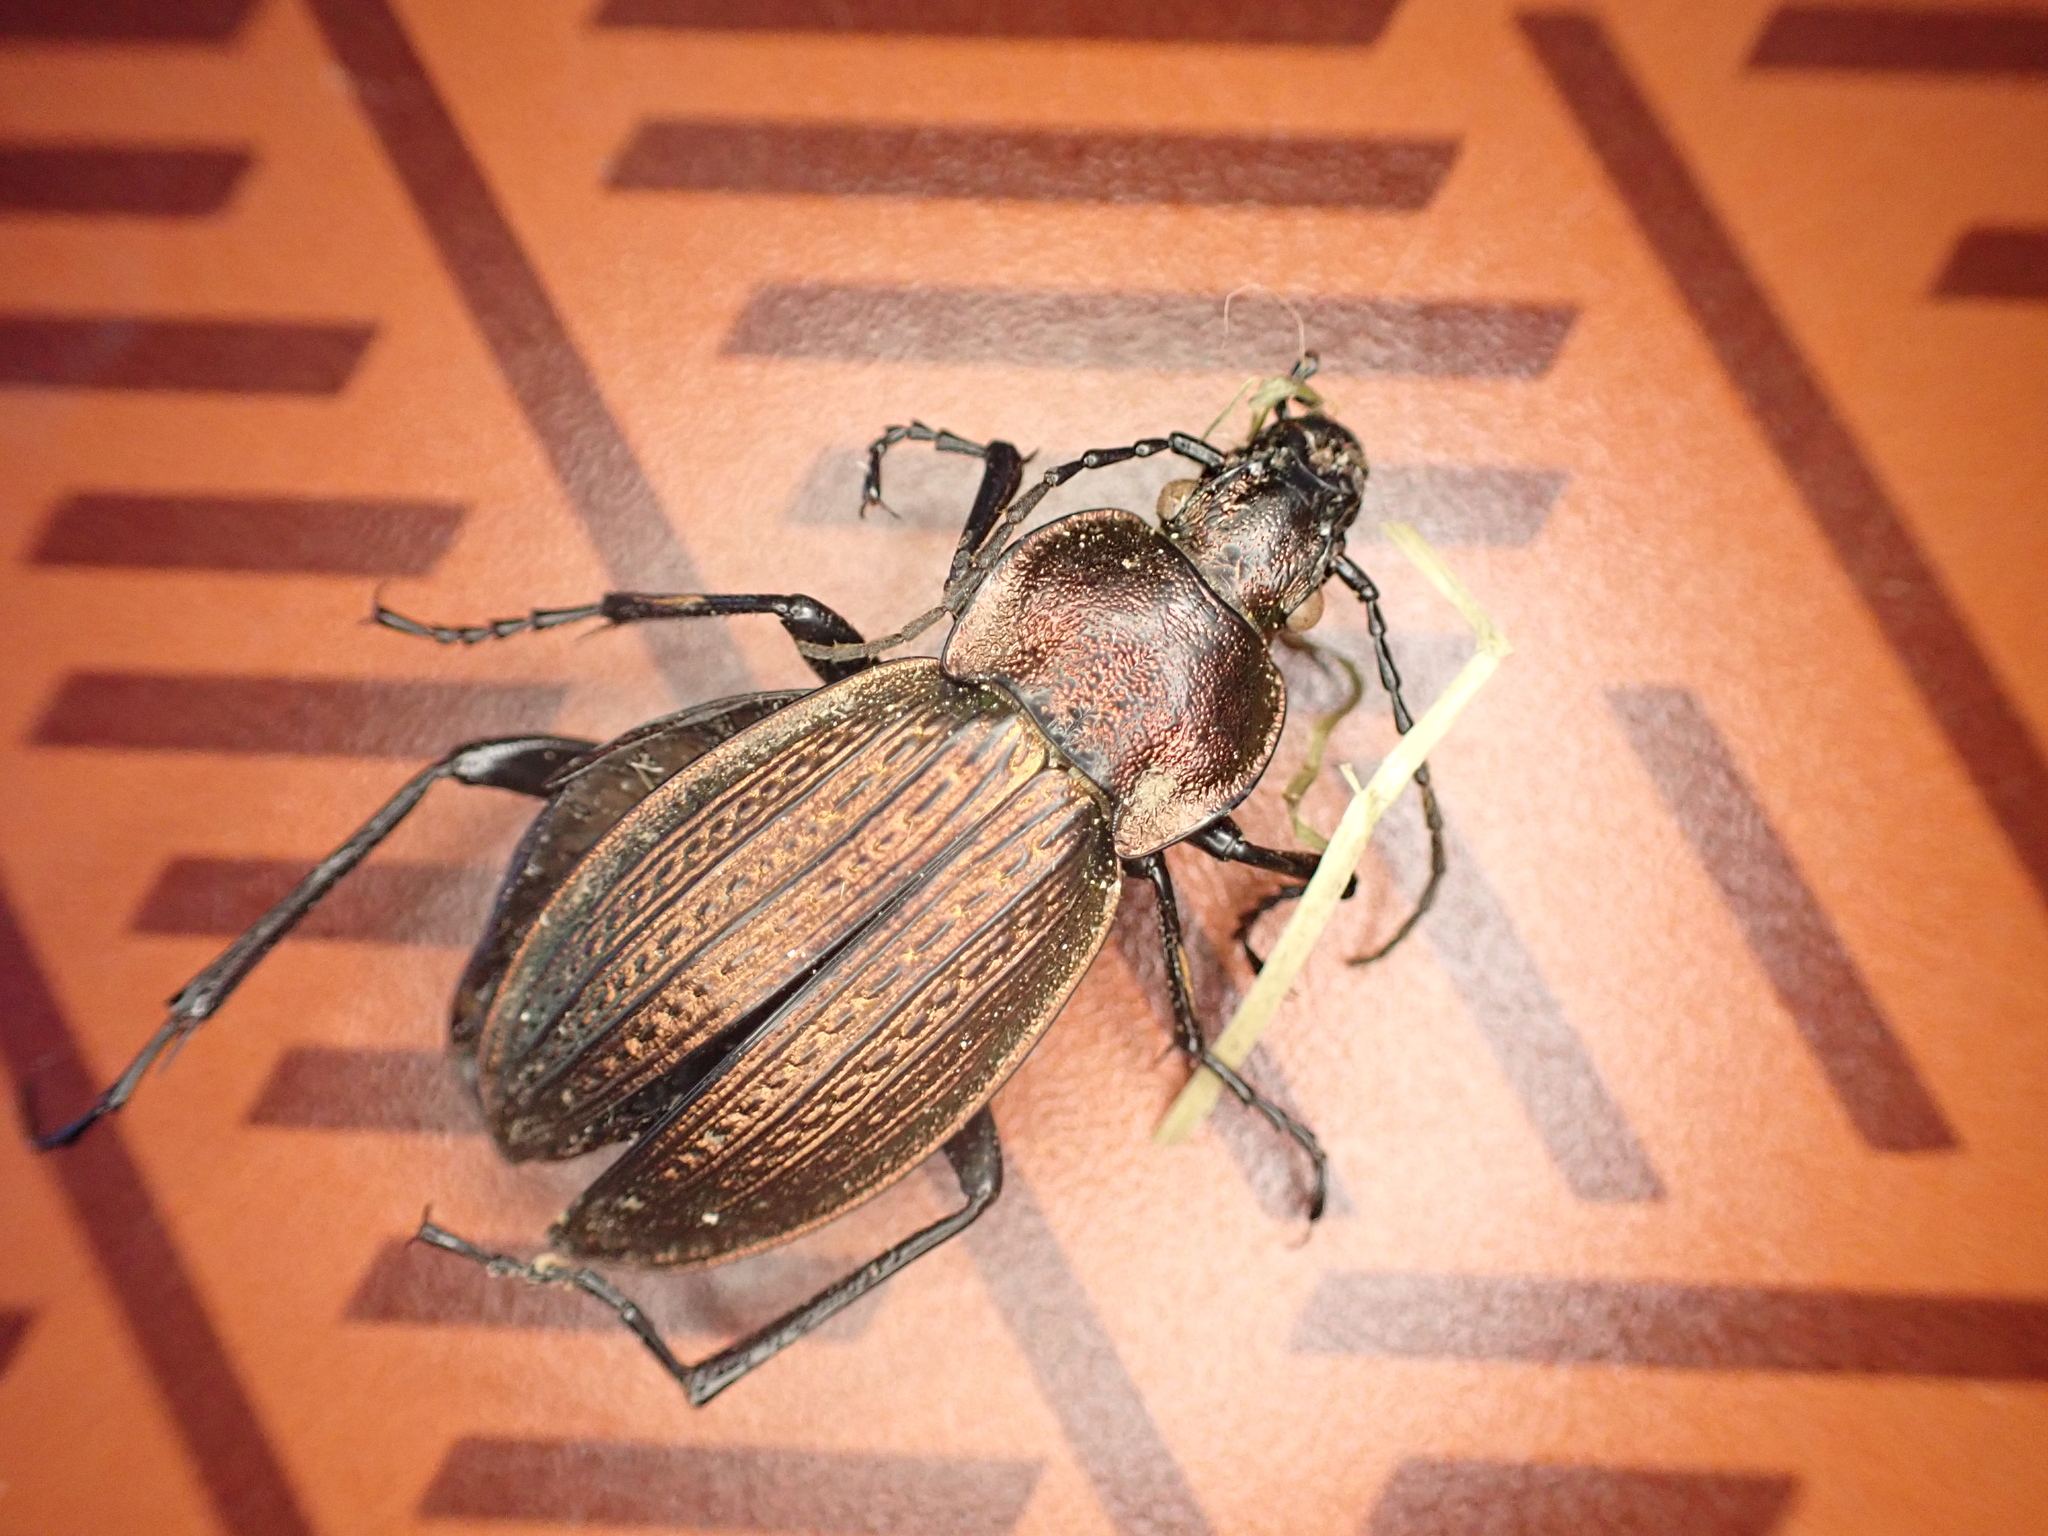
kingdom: Animalia
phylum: Arthropoda
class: Insecta
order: Coleoptera
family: Carabidae
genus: Carabus
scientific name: Carabus monilis
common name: Necklace ground beetle
